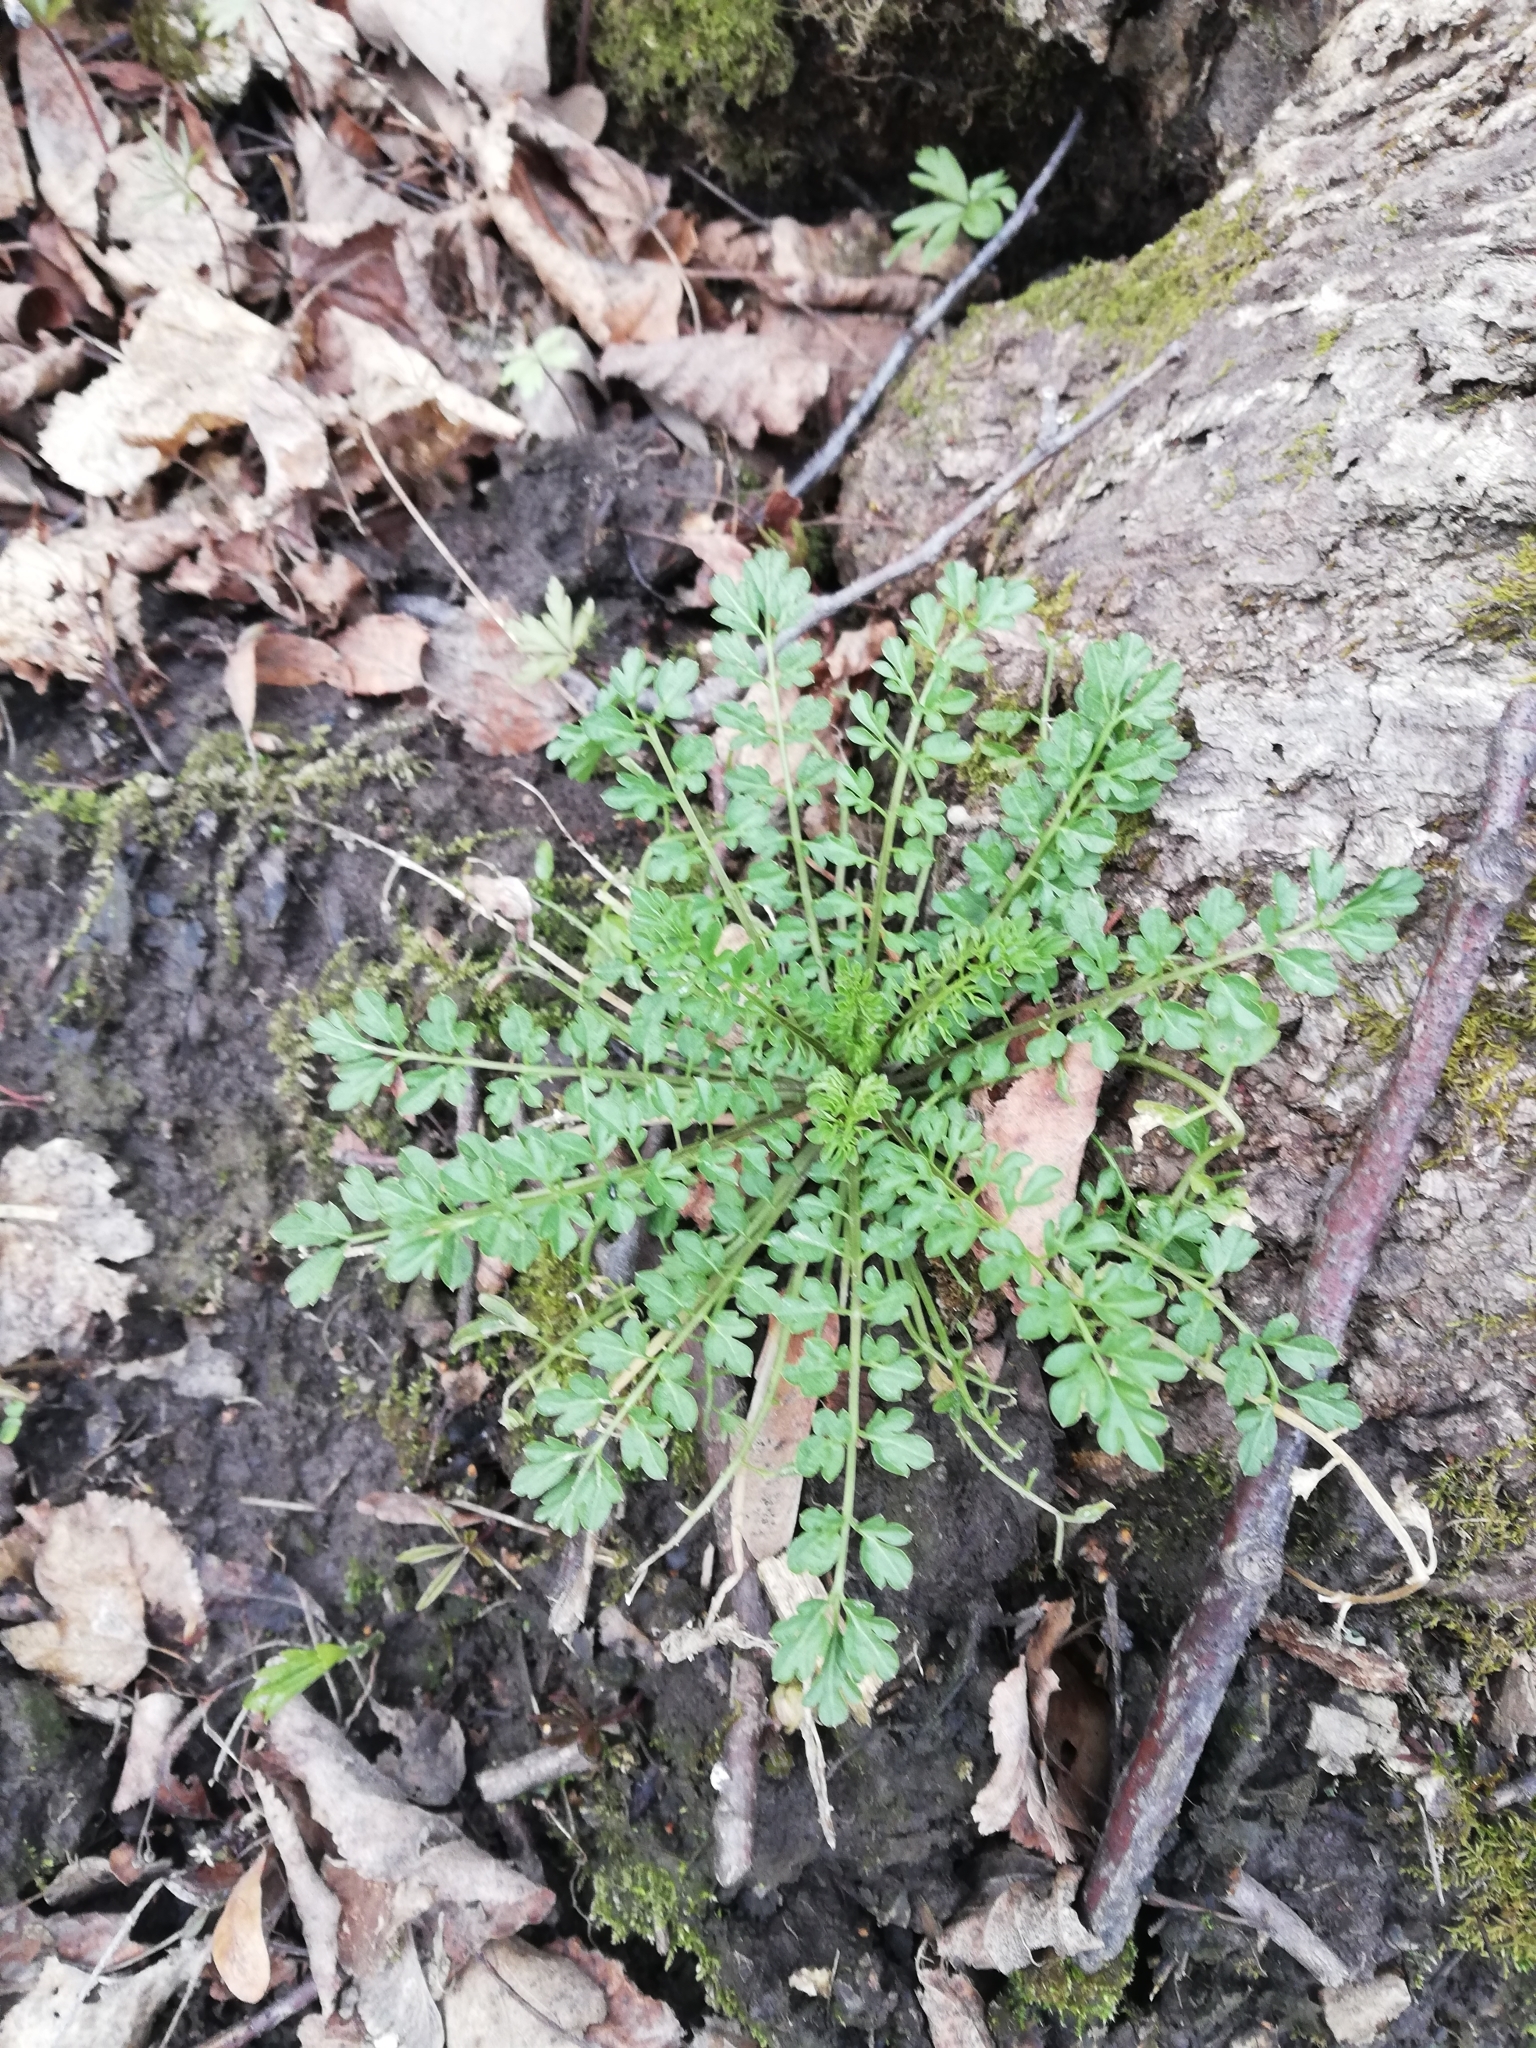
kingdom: Plantae
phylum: Tracheophyta
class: Magnoliopsida
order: Brassicales
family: Brassicaceae
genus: Cardamine
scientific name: Cardamine impatiens
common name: Narrow-leaved bitter-cress
